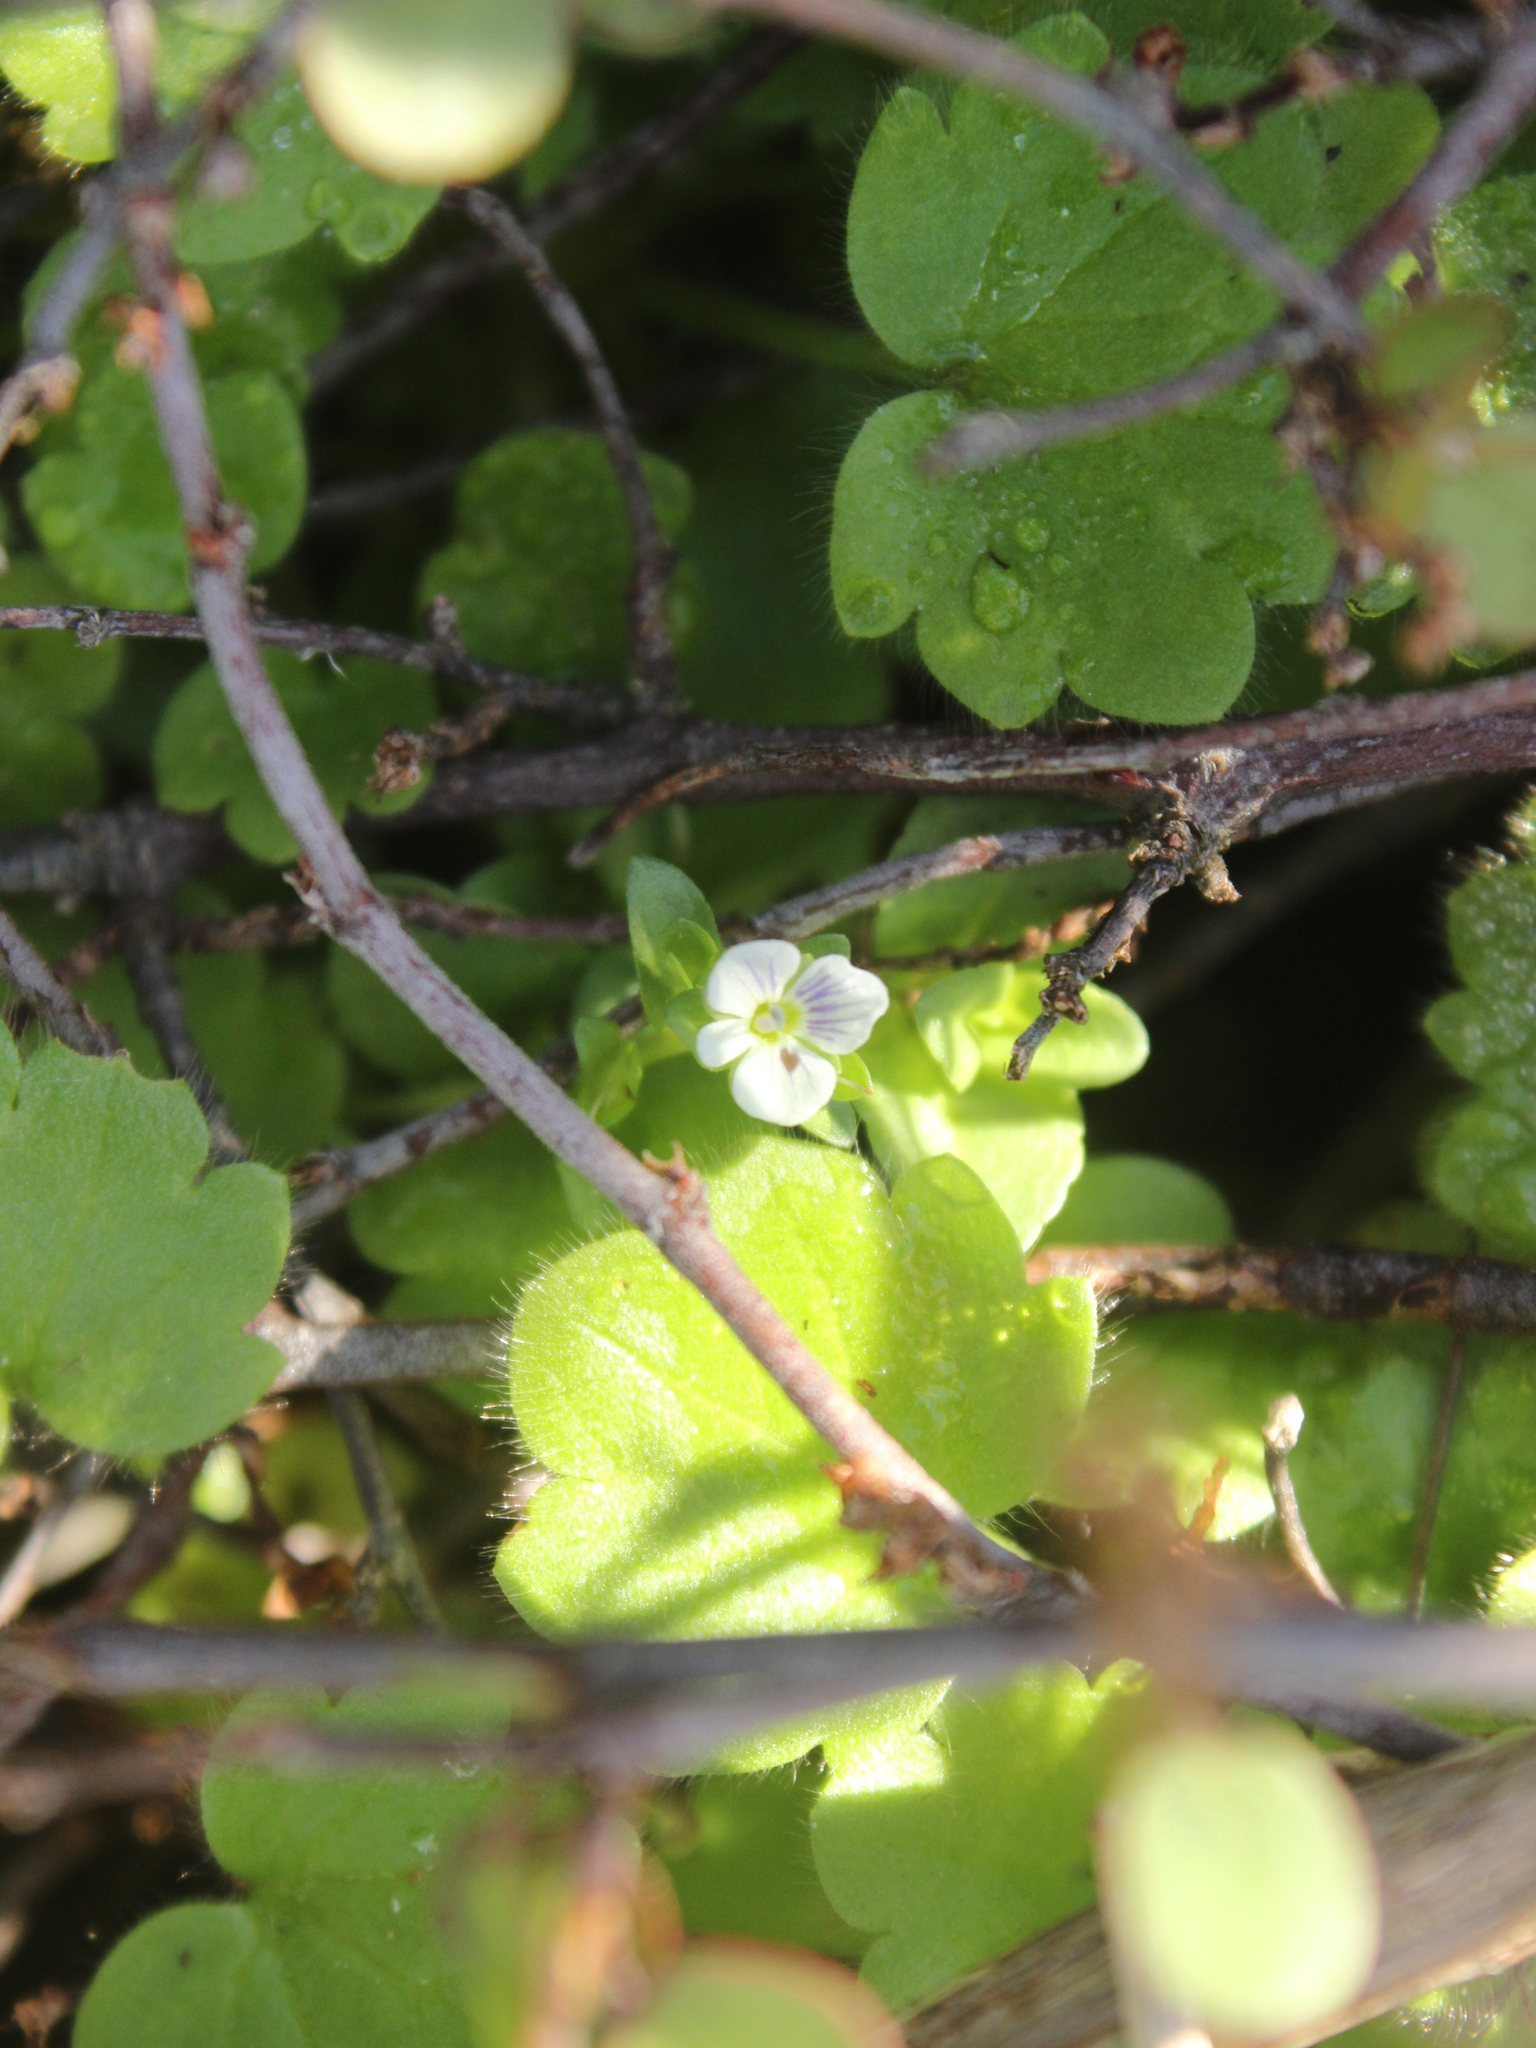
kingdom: Plantae
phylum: Tracheophyta
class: Magnoliopsida
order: Lamiales
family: Plantaginaceae
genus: Veronica
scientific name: Veronica serpyllifolia
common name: Thyme-leaved speedwell
